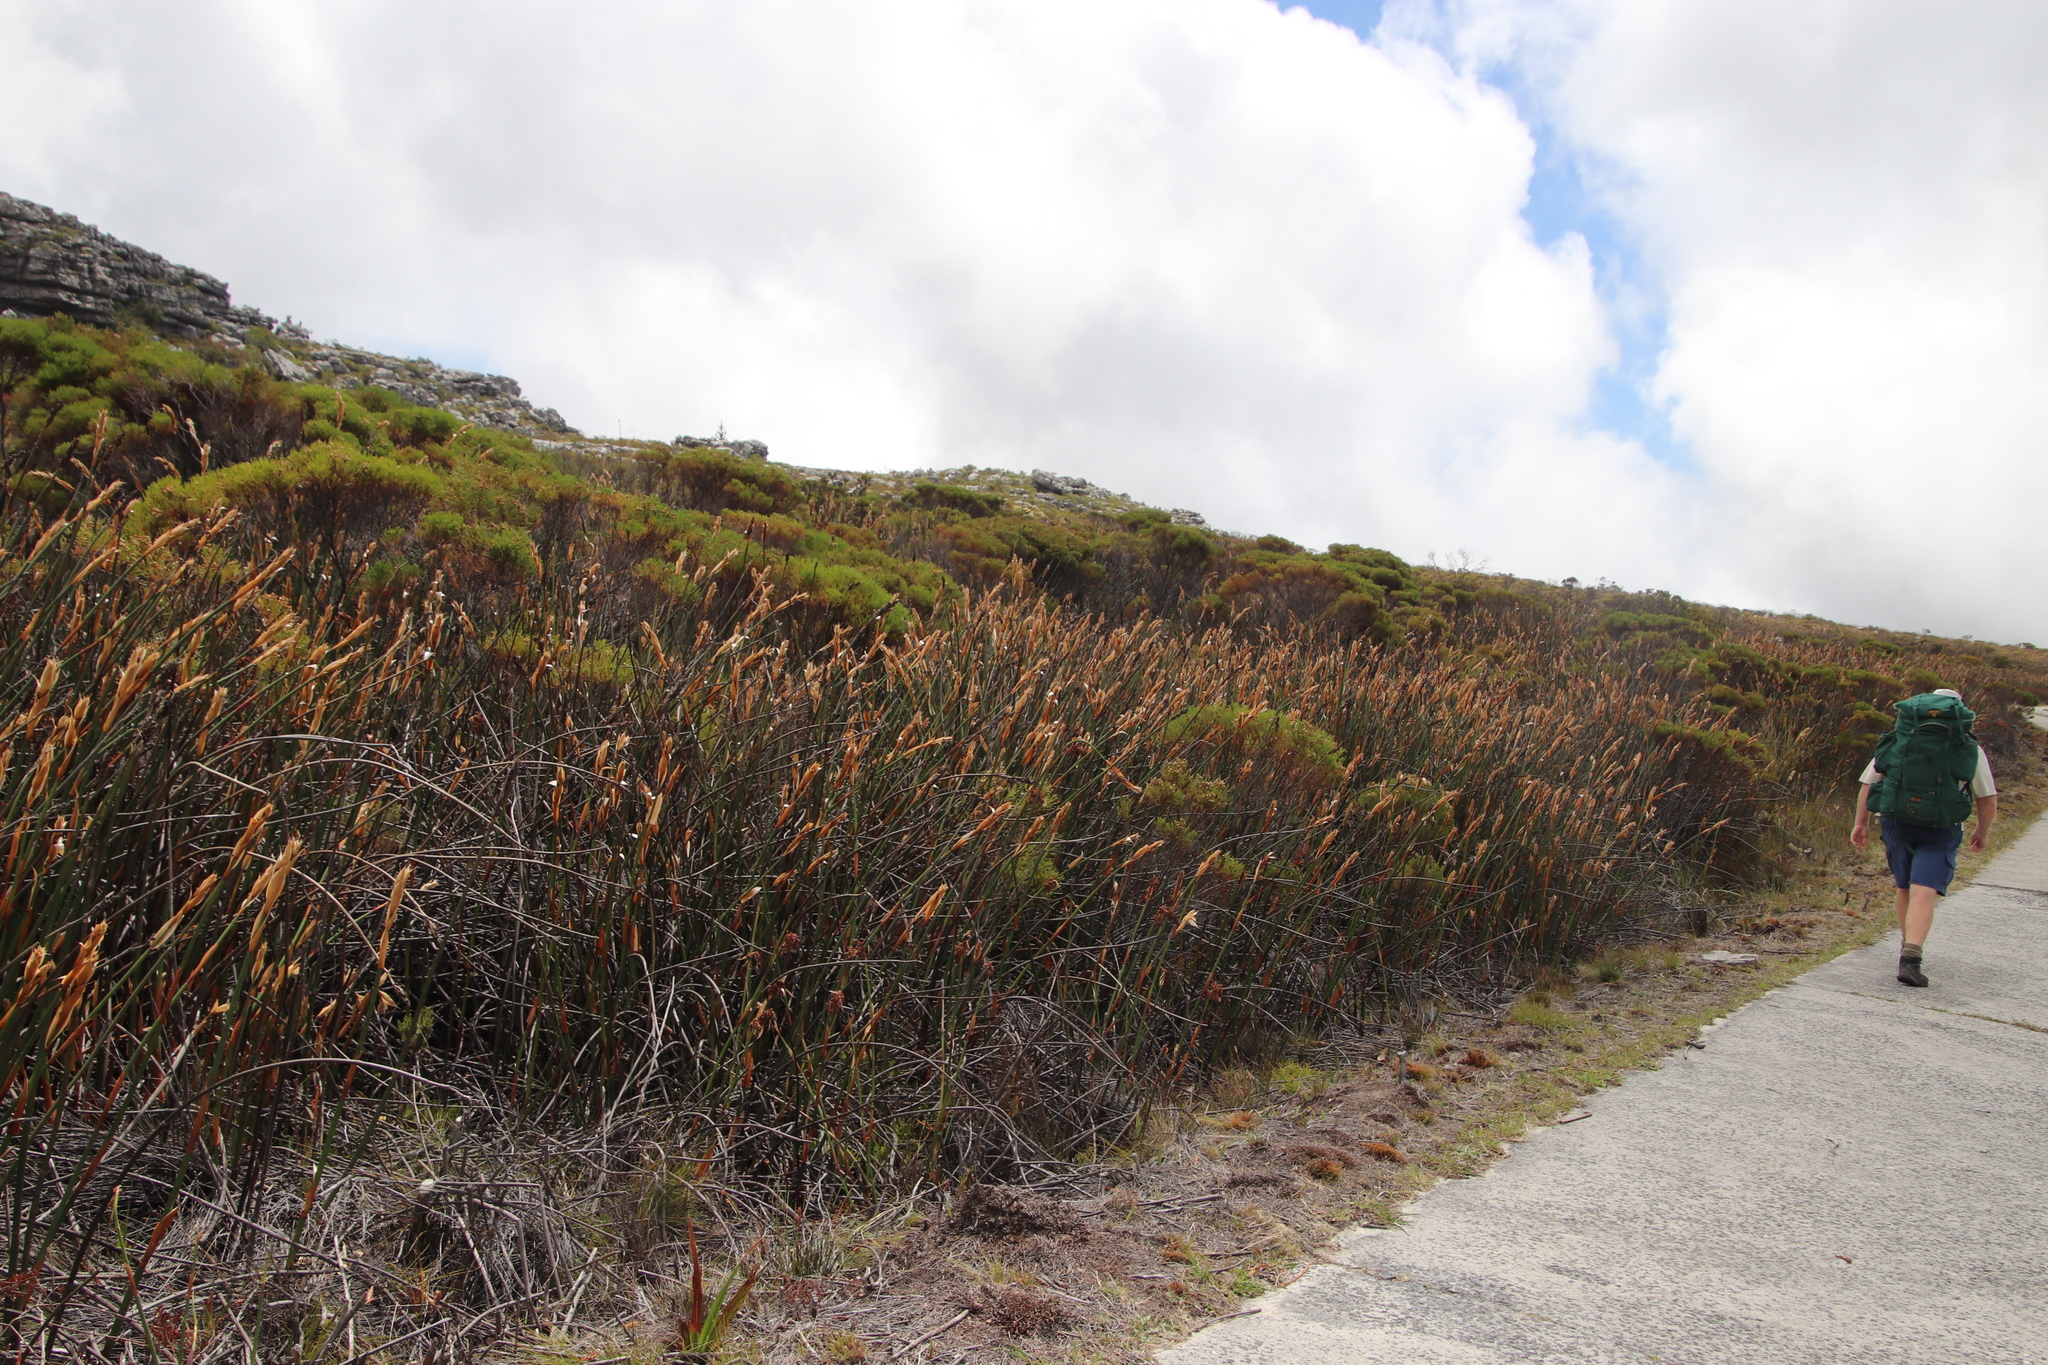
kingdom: Plantae
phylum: Tracheophyta
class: Liliopsida
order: Poales
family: Restionaceae
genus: Elegia
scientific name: Elegia mucronata
